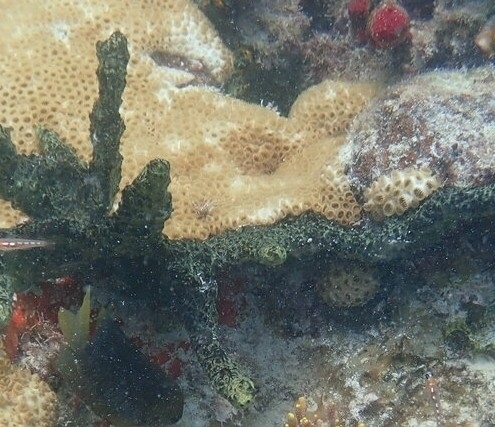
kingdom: Animalia
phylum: Porifera
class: Demospongiae
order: Poecilosclerida
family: Iotrochotidae
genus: Iotrochota
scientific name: Iotrochota birotulata
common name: Purple bleeding sponge
